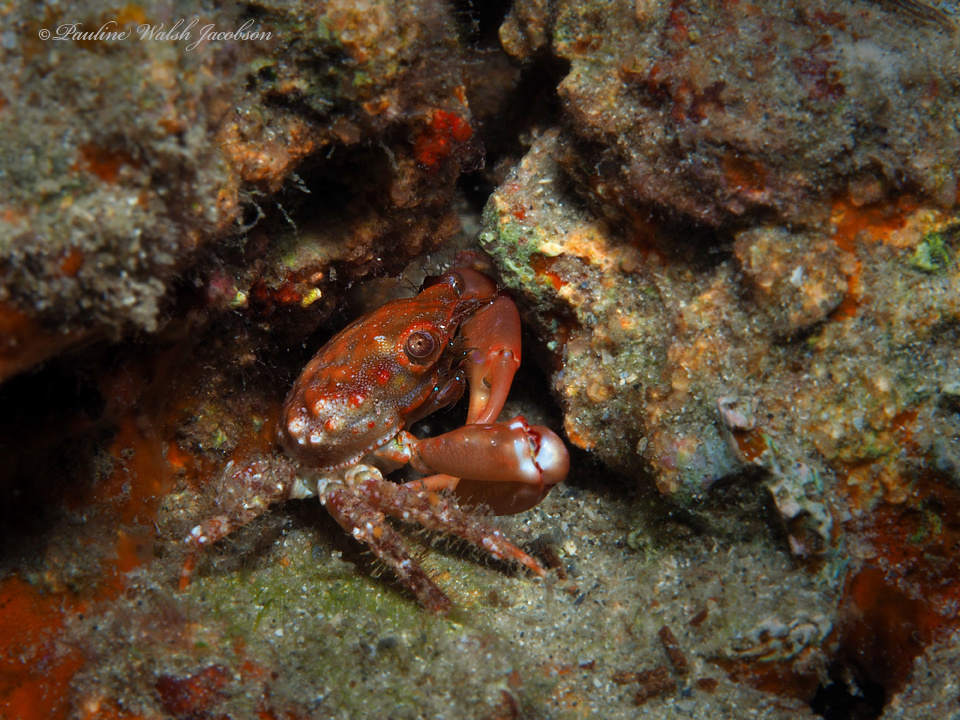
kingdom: Animalia
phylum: Arthropoda
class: Malacostraca
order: Decapoda
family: Mithracidae
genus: Mithraculus
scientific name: Mithraculus forceps
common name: Red-ridged clinging crab
